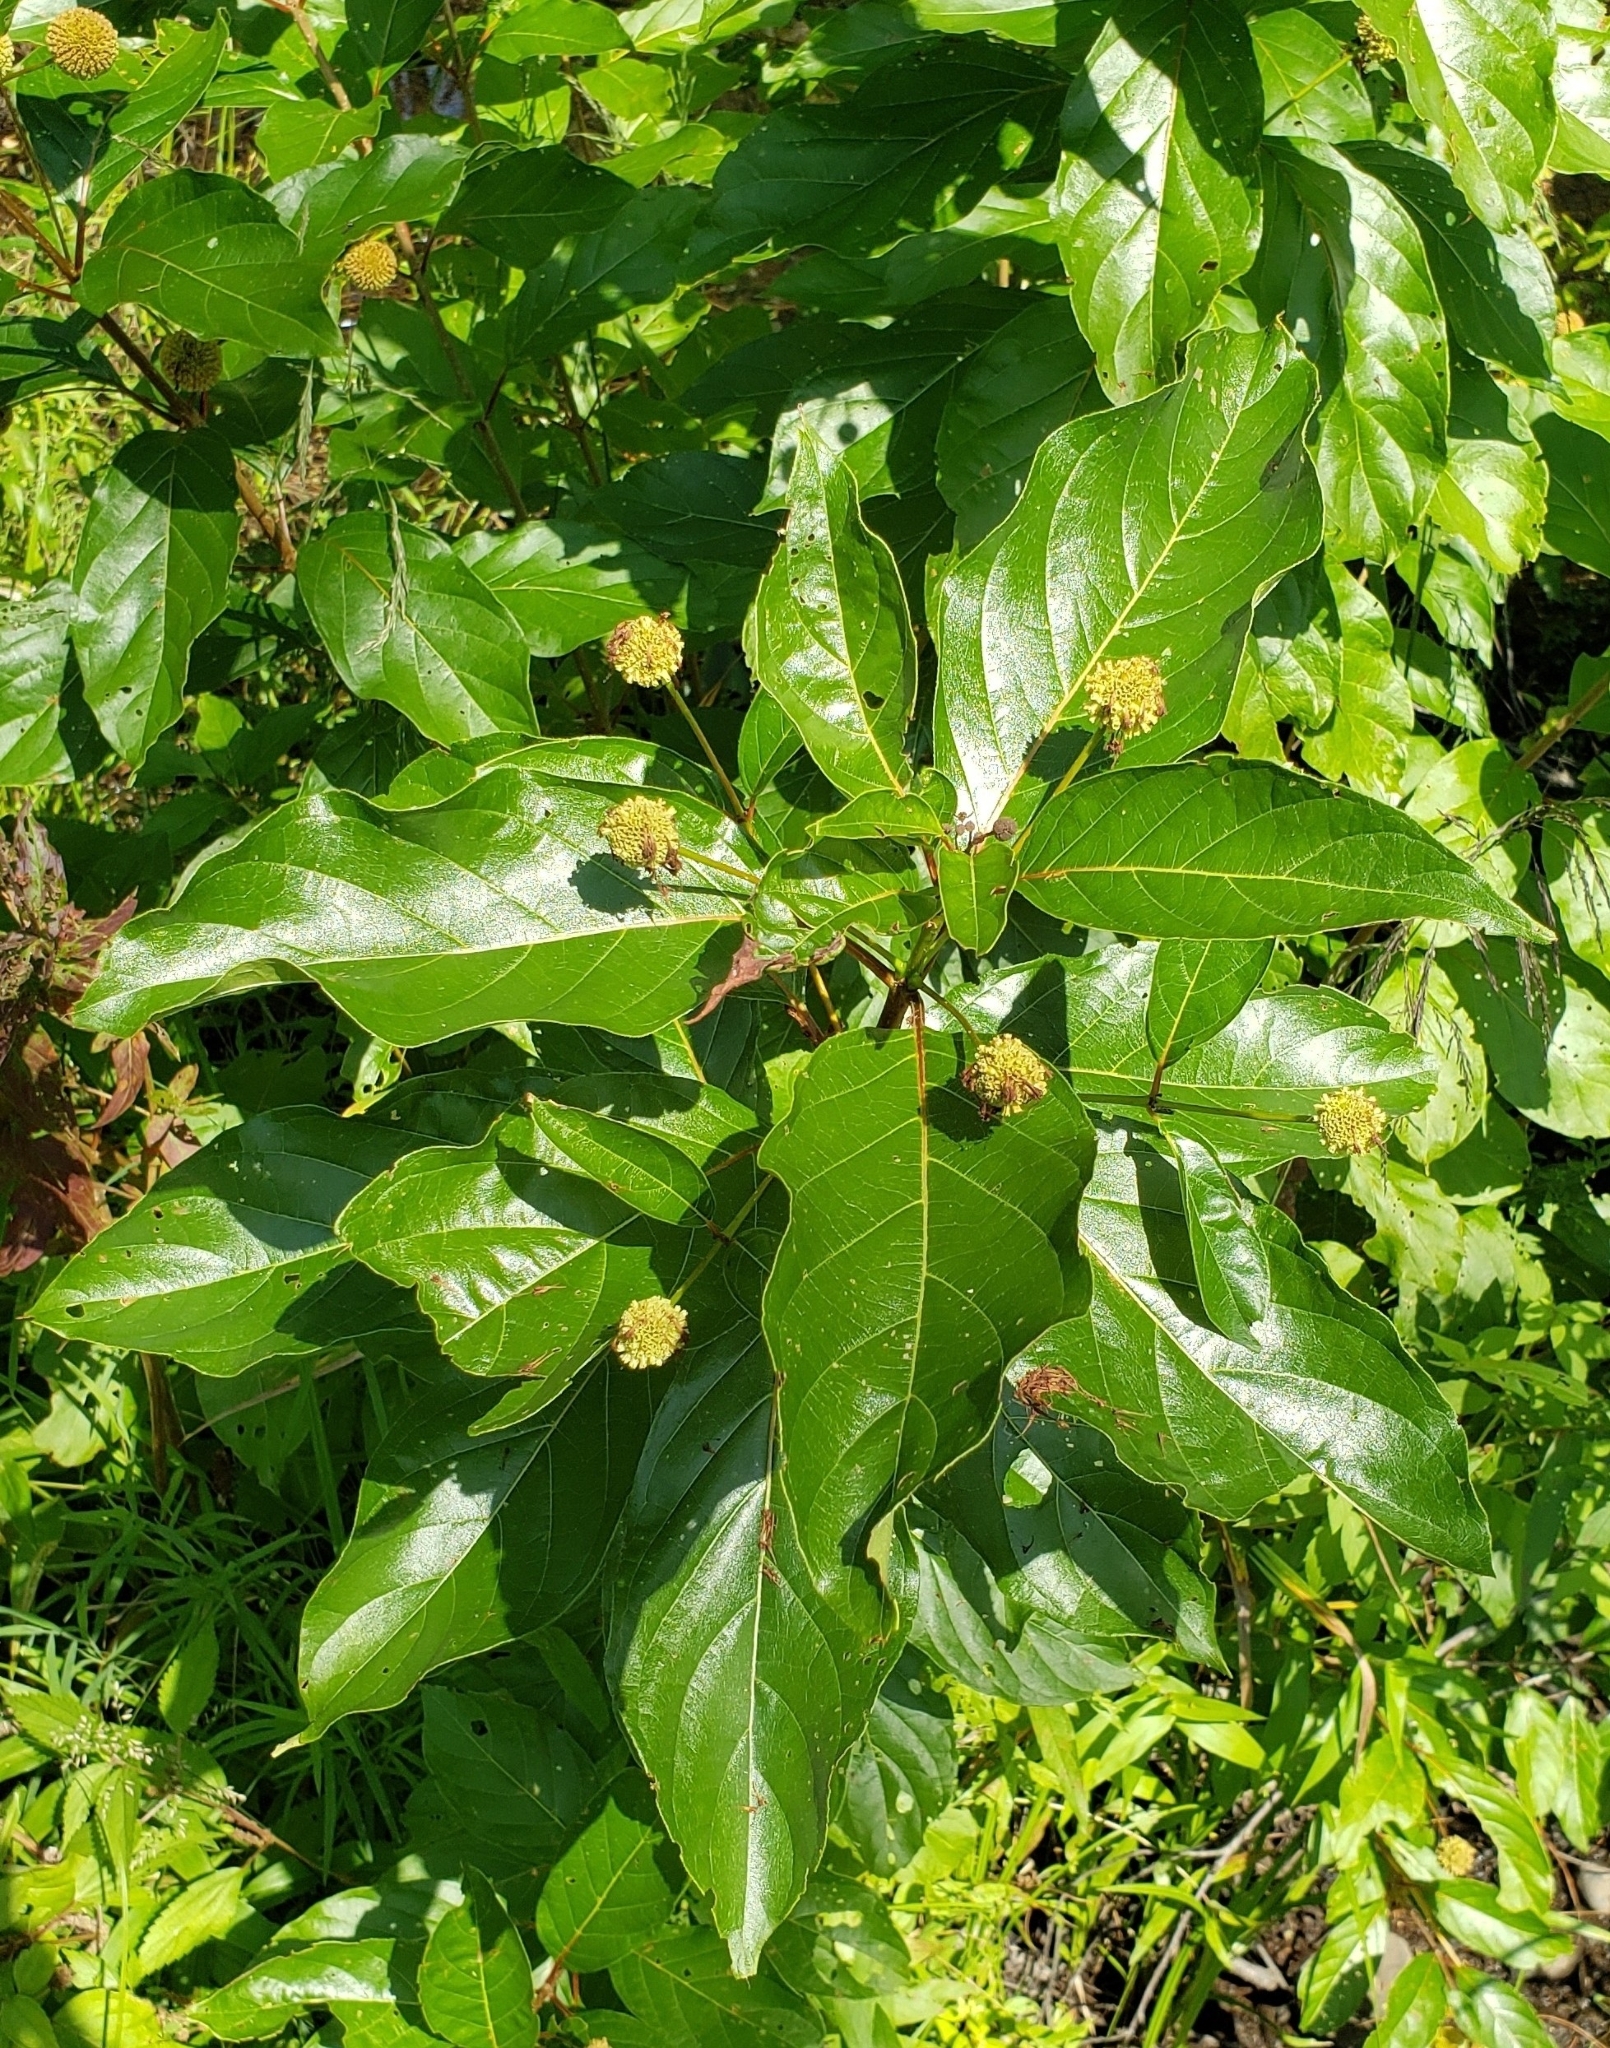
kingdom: Plantae
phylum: Tracheophyta
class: Magnoliopsida
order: Gentianales
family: Rubiaceae
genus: Cephalanthus
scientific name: Cephalanthus occidentalis
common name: Button-willow
